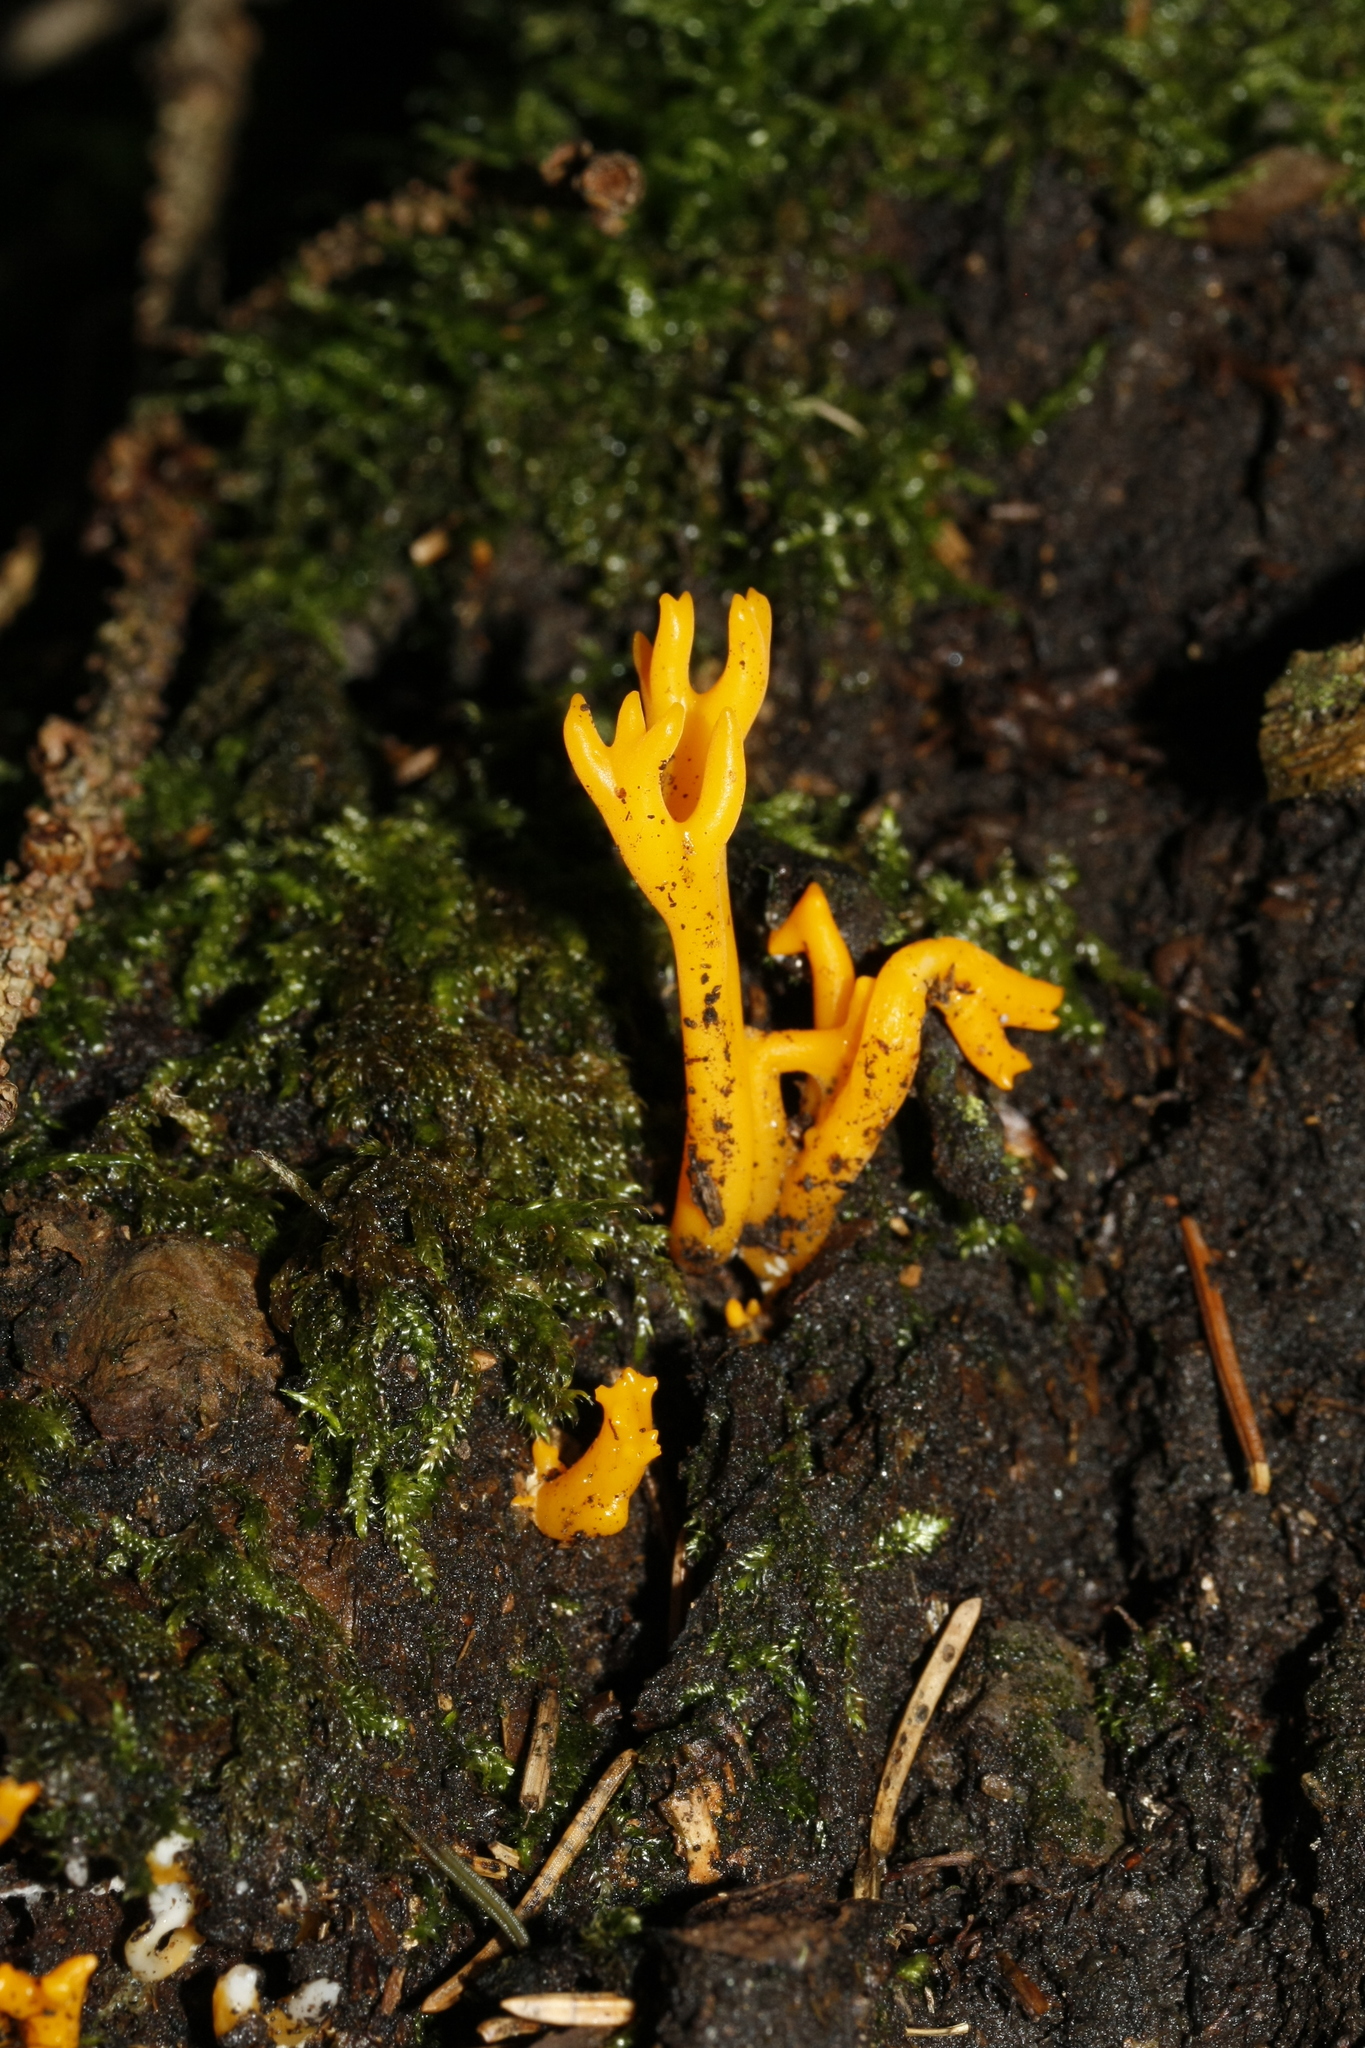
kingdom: Fungi
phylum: Basidiomycota
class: Dacrymycetes
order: Dacrymycetales
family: Dacrymycetaceae
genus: Calocera
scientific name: Calocera viscosa
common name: Yellow stagshorn
